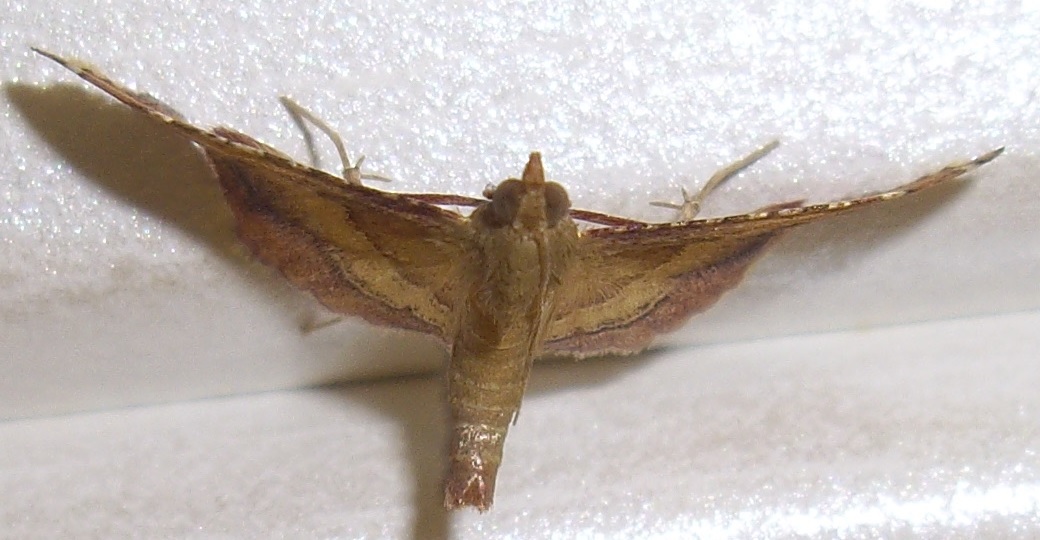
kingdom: Animalia
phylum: Arthropoda
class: Insecta
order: Lepidoptera
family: Pyralidae
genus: Endotricha
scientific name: Endotricha flammealis
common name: Rosy tabby
